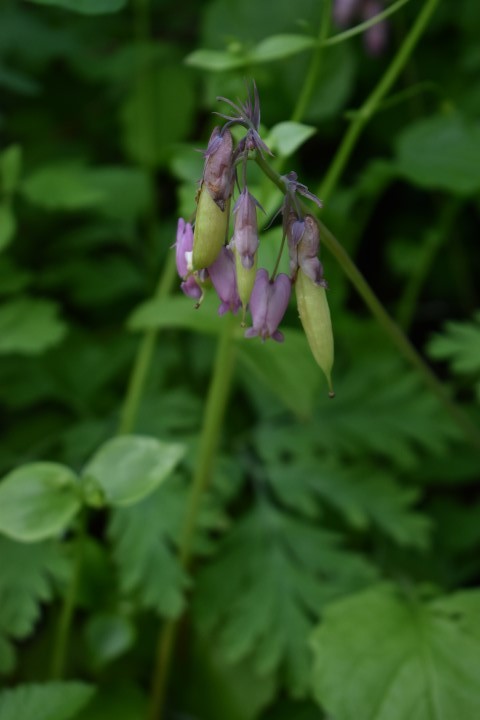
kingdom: Plantae
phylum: Tracheophyta
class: Magnoliopsida
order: Ranunculales
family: Papaveraceae
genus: Dicentra
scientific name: Dicentra formosa
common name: Bleeding-heart
